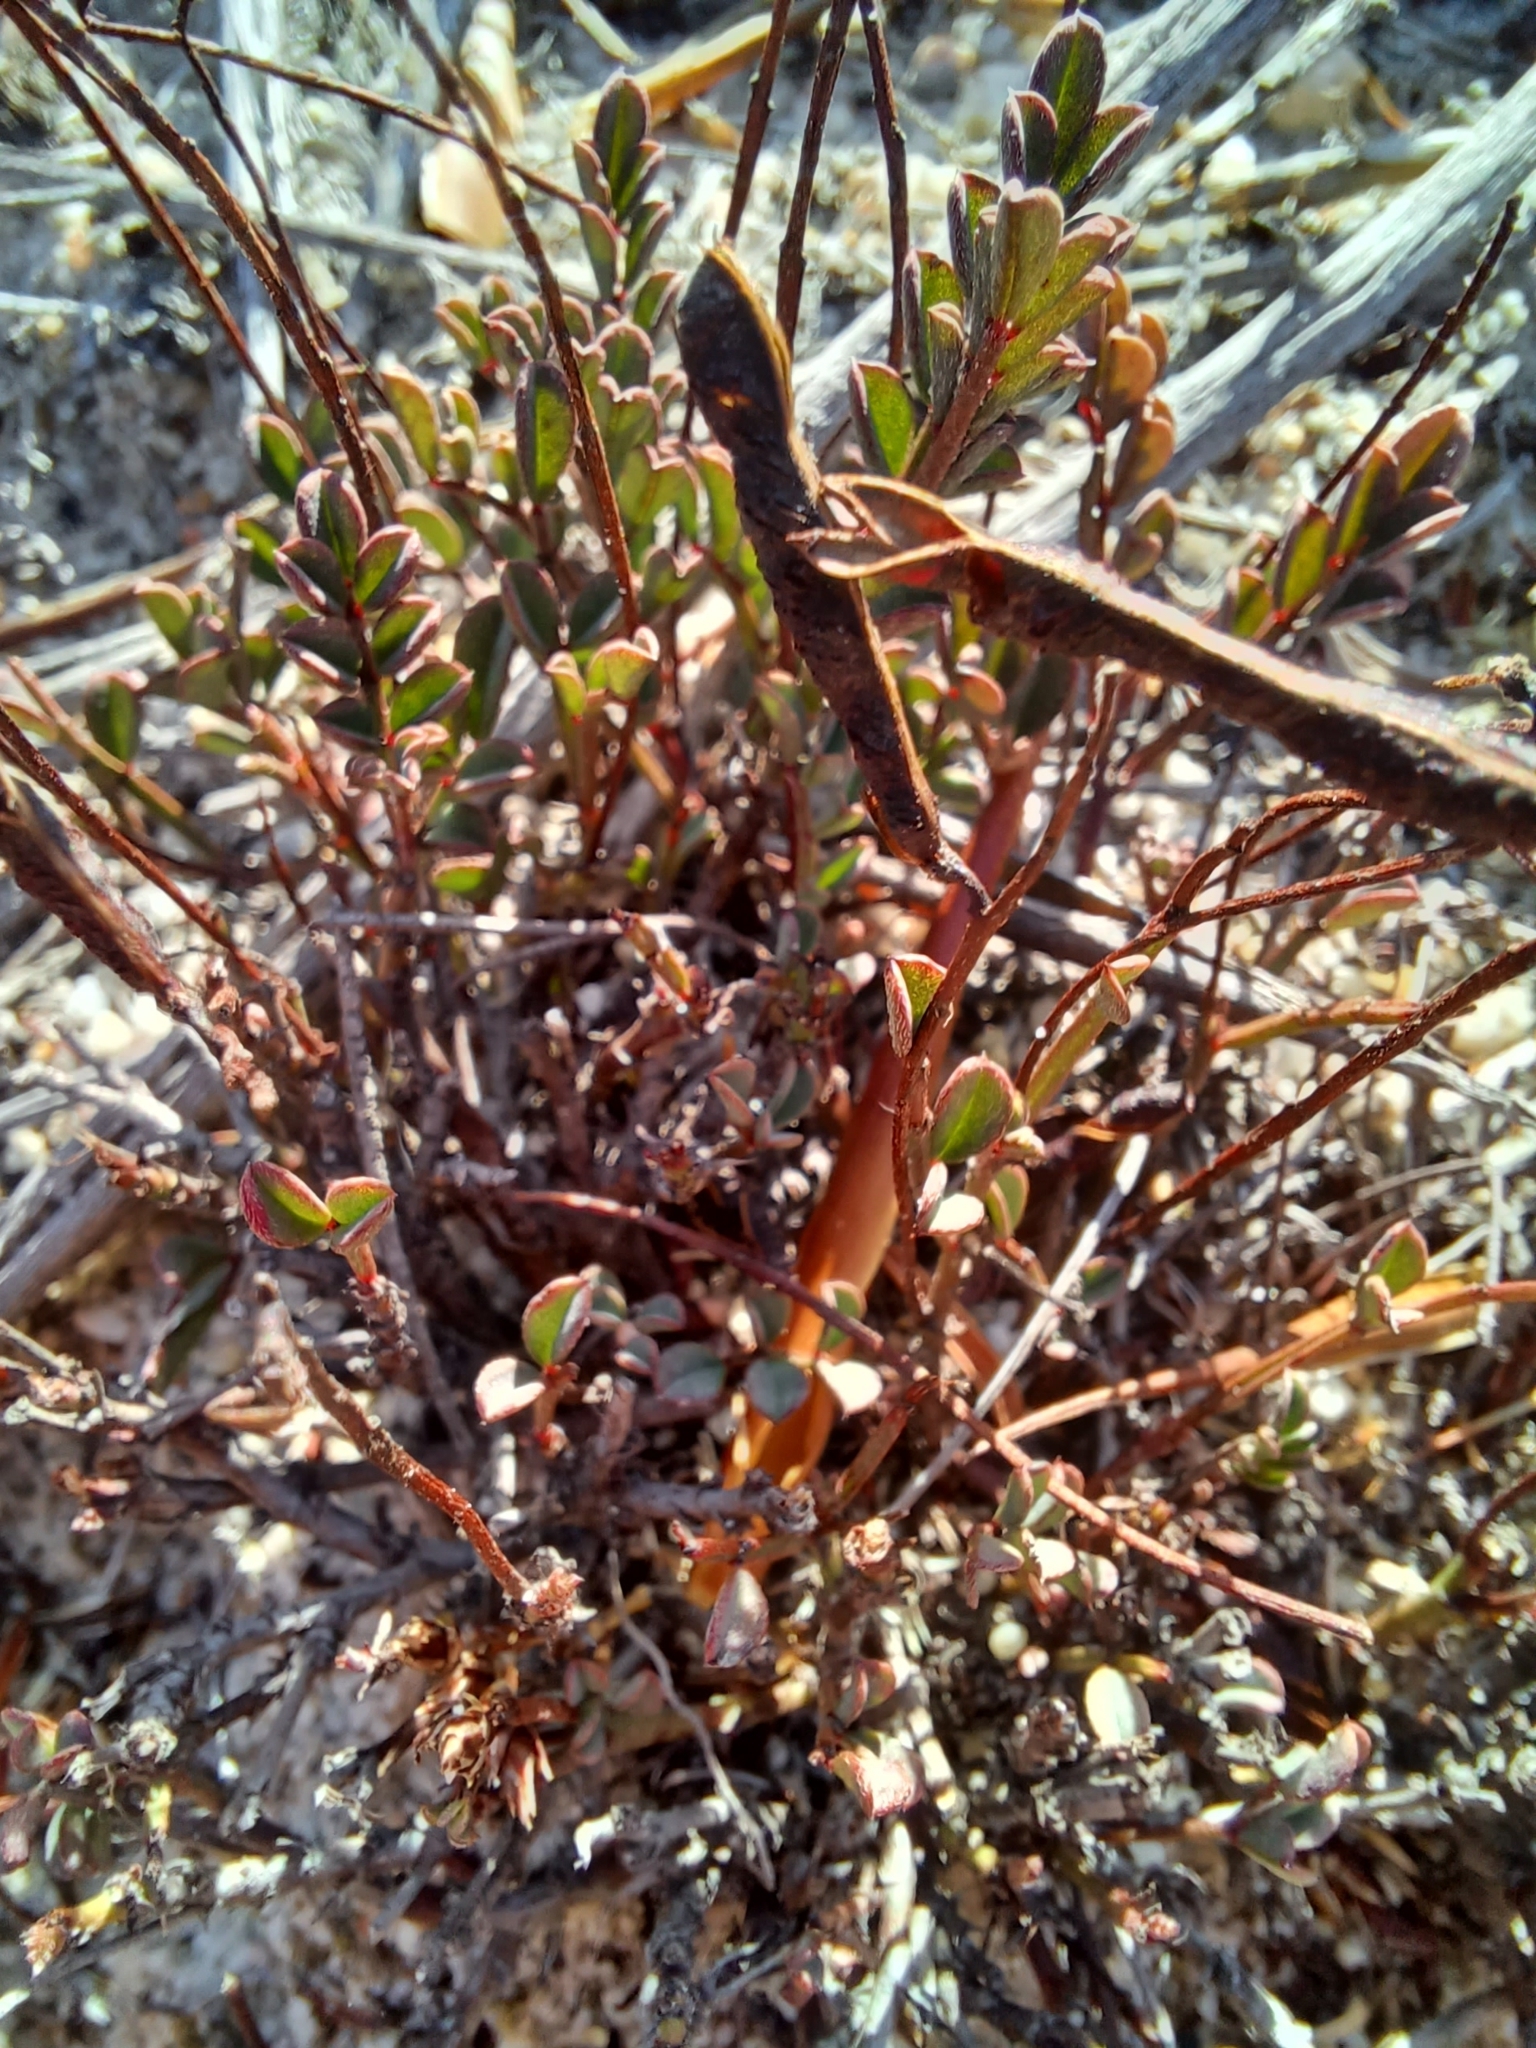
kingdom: Plantae
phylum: Tracheophyta
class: Magnoliopsida
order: Fabales
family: Fabaceae
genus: Indigofera
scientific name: Indigofera capillaris
